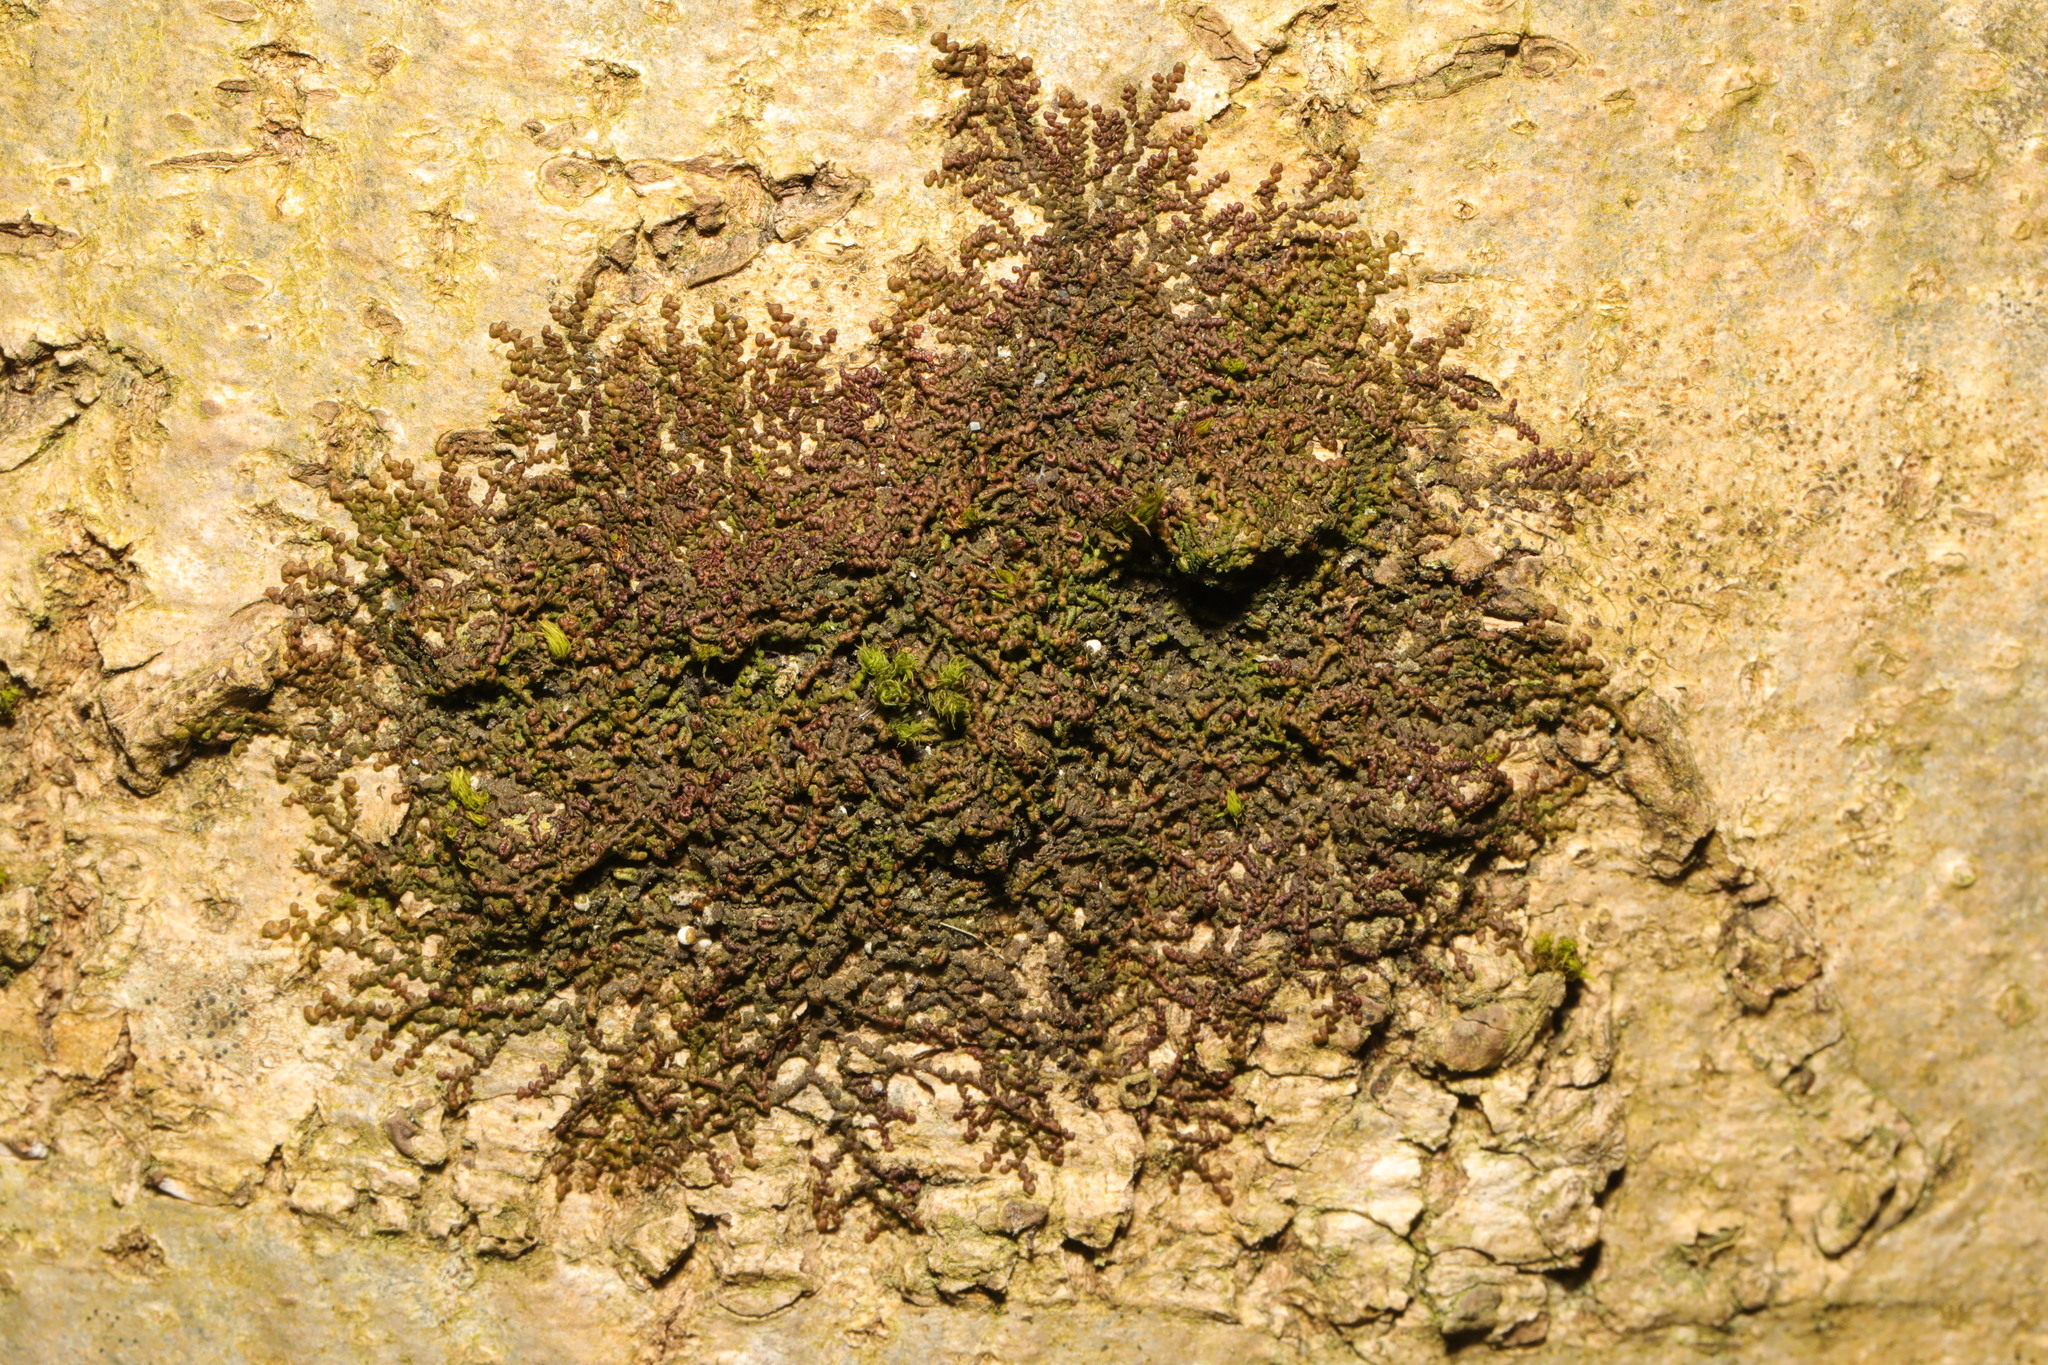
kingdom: Plantae
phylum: Marchantiophyta
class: Jungermanniopsida
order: Porellales
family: Frullaniaceae
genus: Frullania
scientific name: Frullania dilatata
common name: Dilated scalewort
